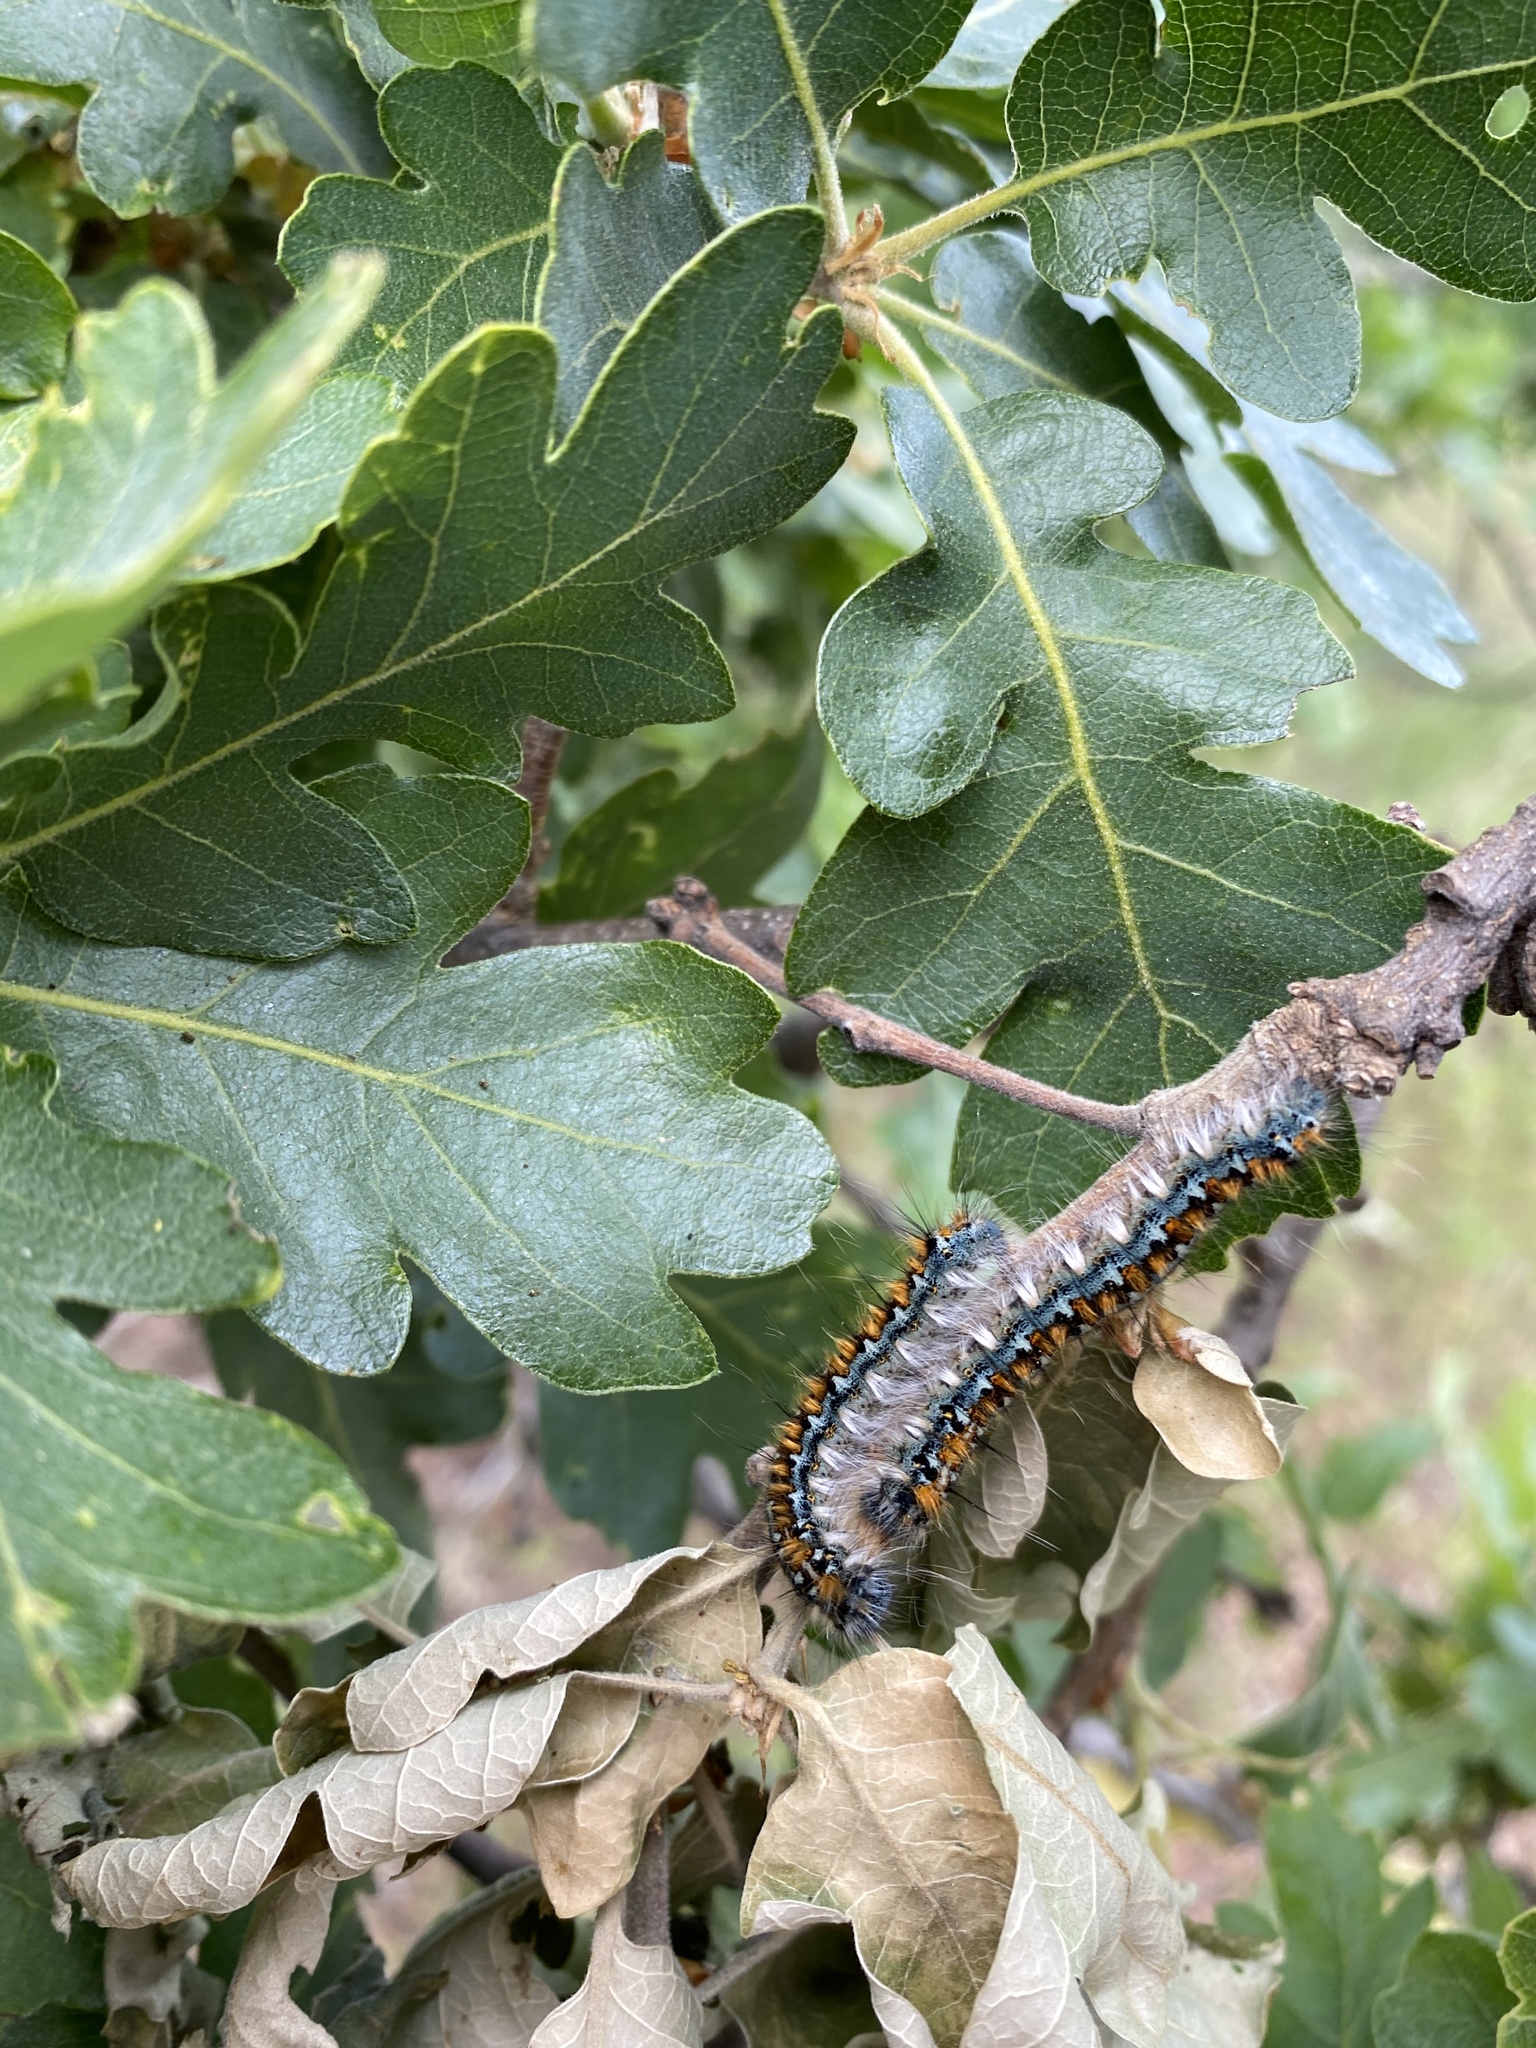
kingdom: Animalia
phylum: Arthropoda
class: Insecta
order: Lepidoptera
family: Lasiocampidae
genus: Malacosoma
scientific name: Malacosoma constricta
